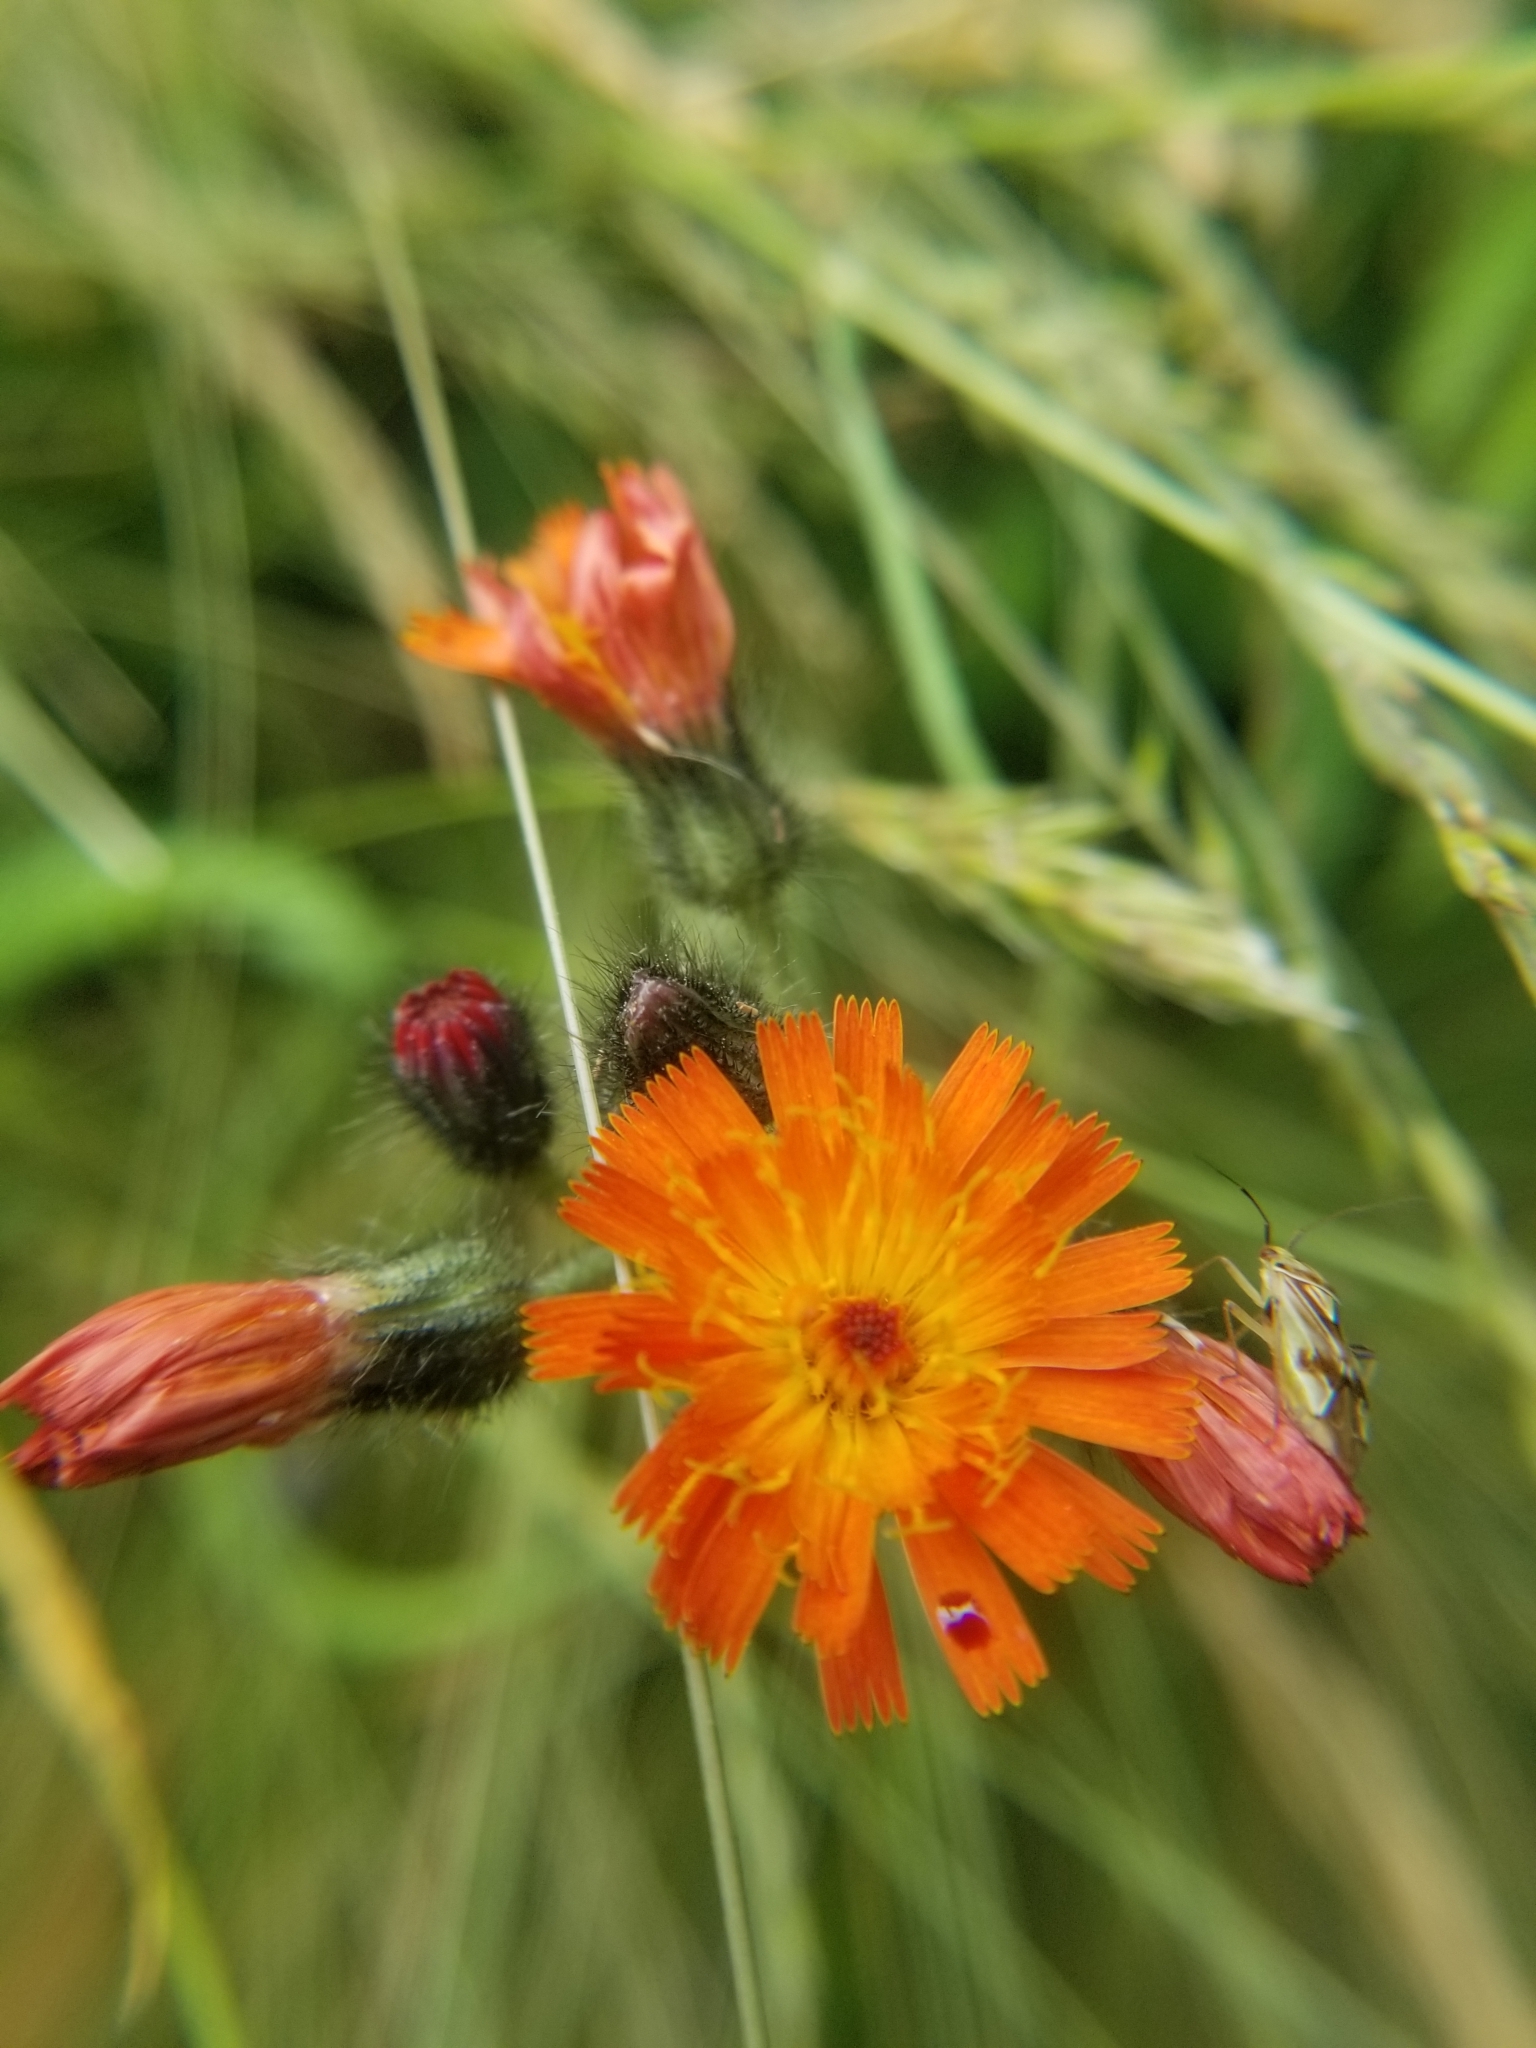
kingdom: Plantae
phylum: Tracheophyta
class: Magnoliopsida
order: Asterales
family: Asteraceae
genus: Pilosella
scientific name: Pilosella aurantiaca
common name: Fox-and-cubs
